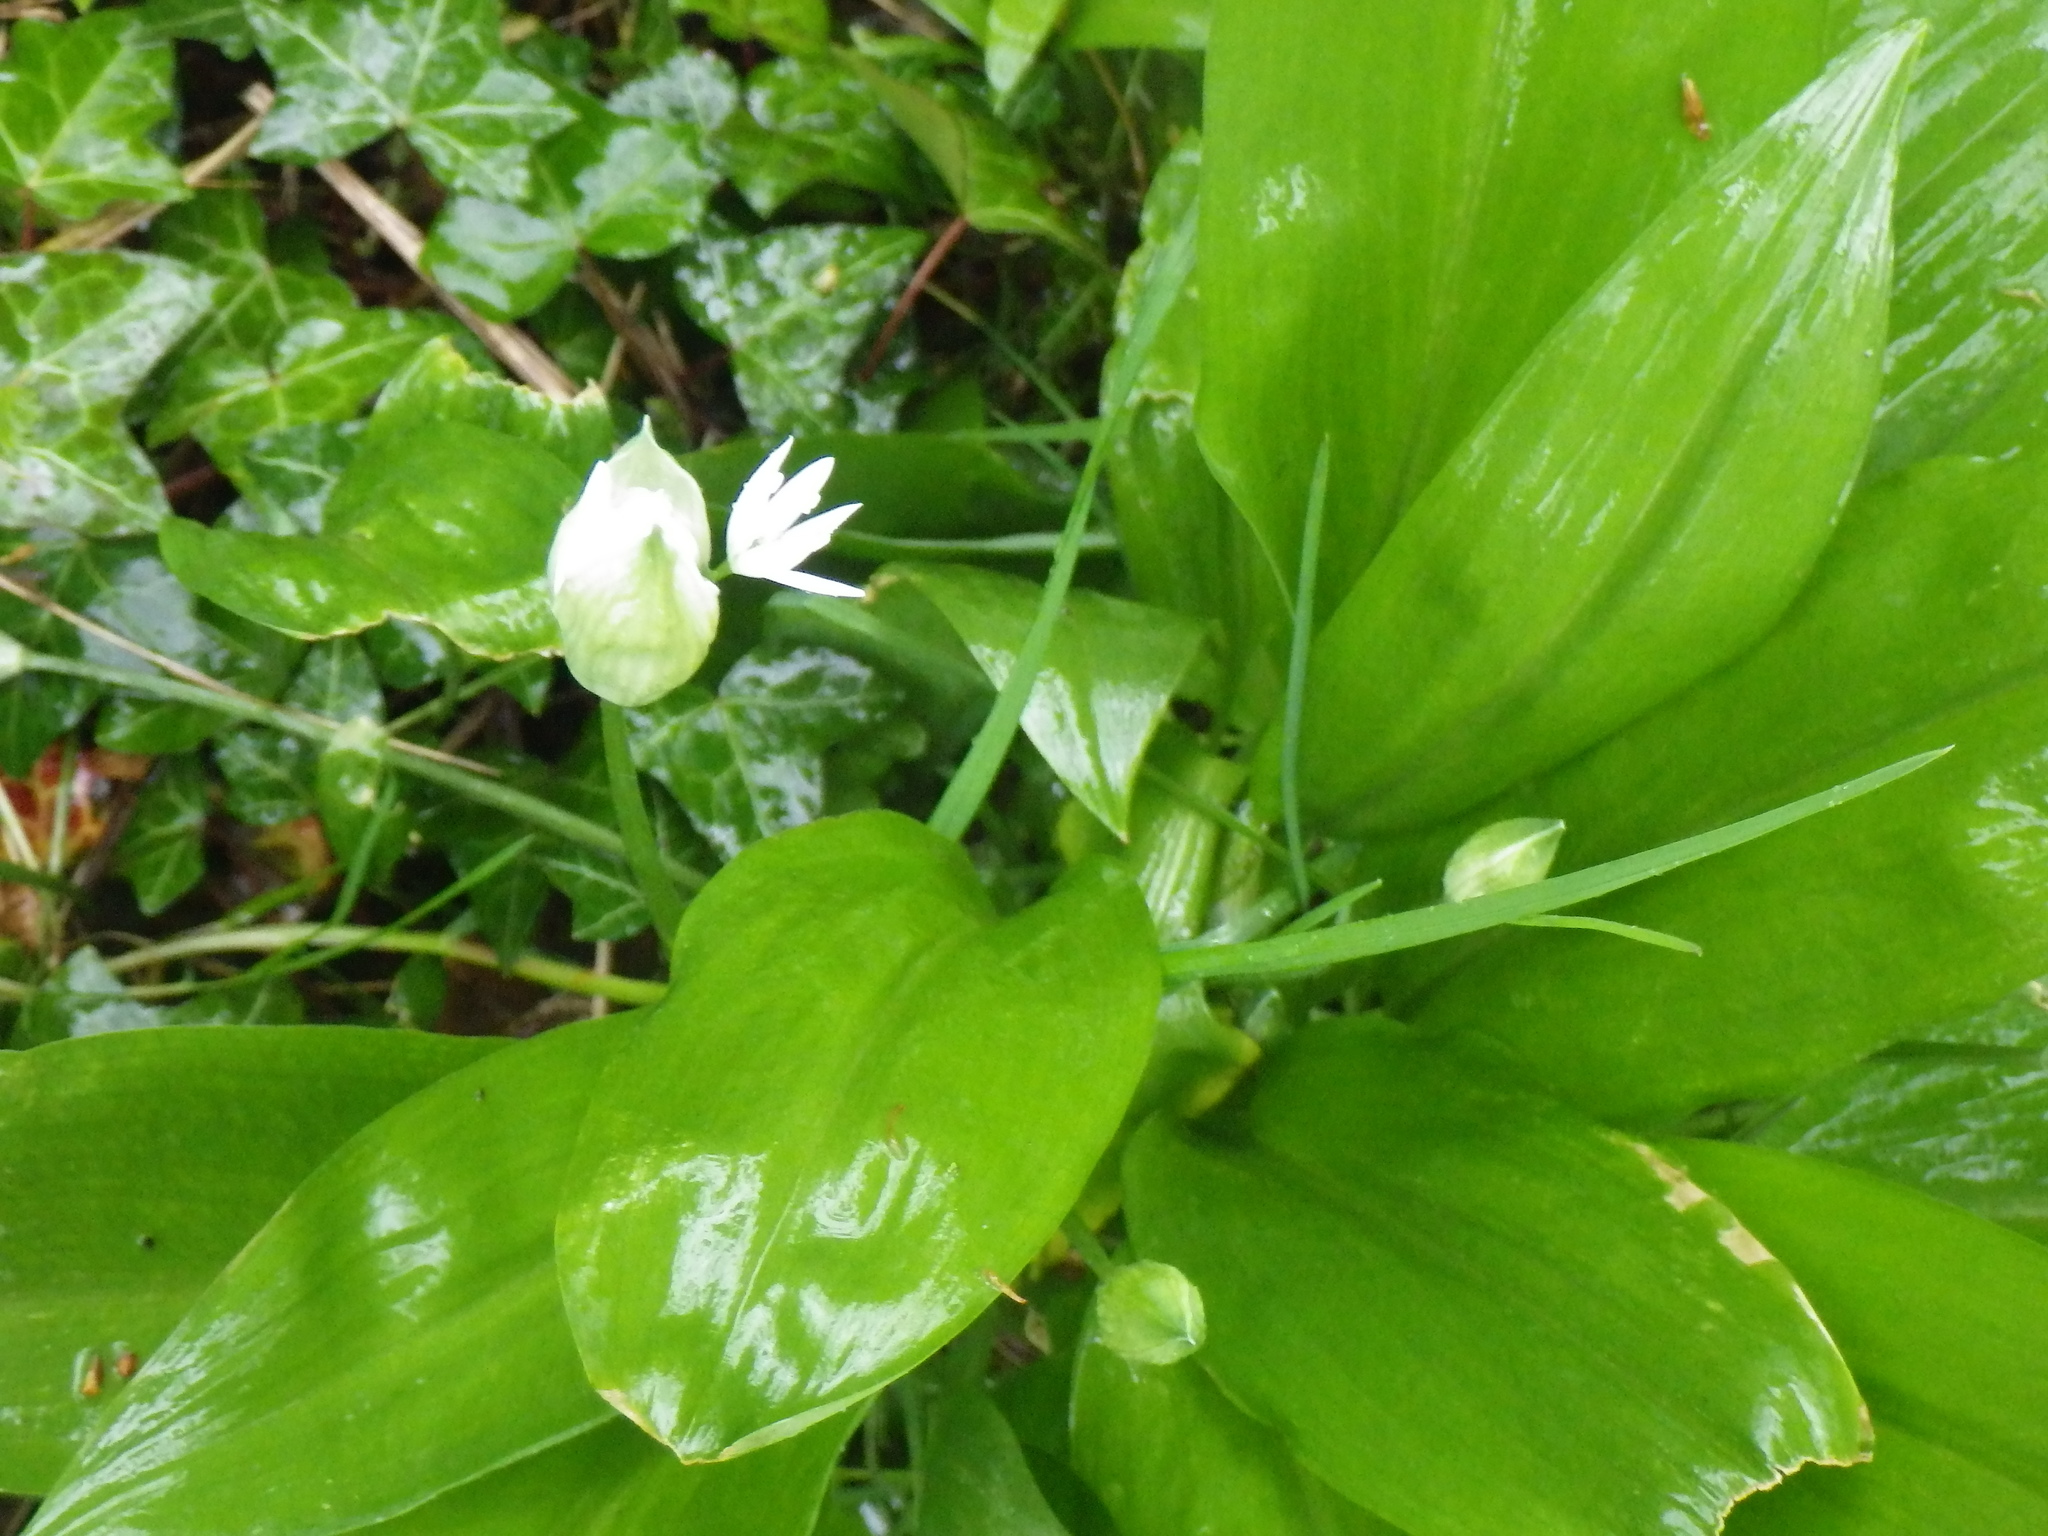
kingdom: Plantae
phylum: Tracheophyta
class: Liliopsida
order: Asparagales
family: Amaryllidaceae
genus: Allium
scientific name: Allium ursinum
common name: Ramsons
